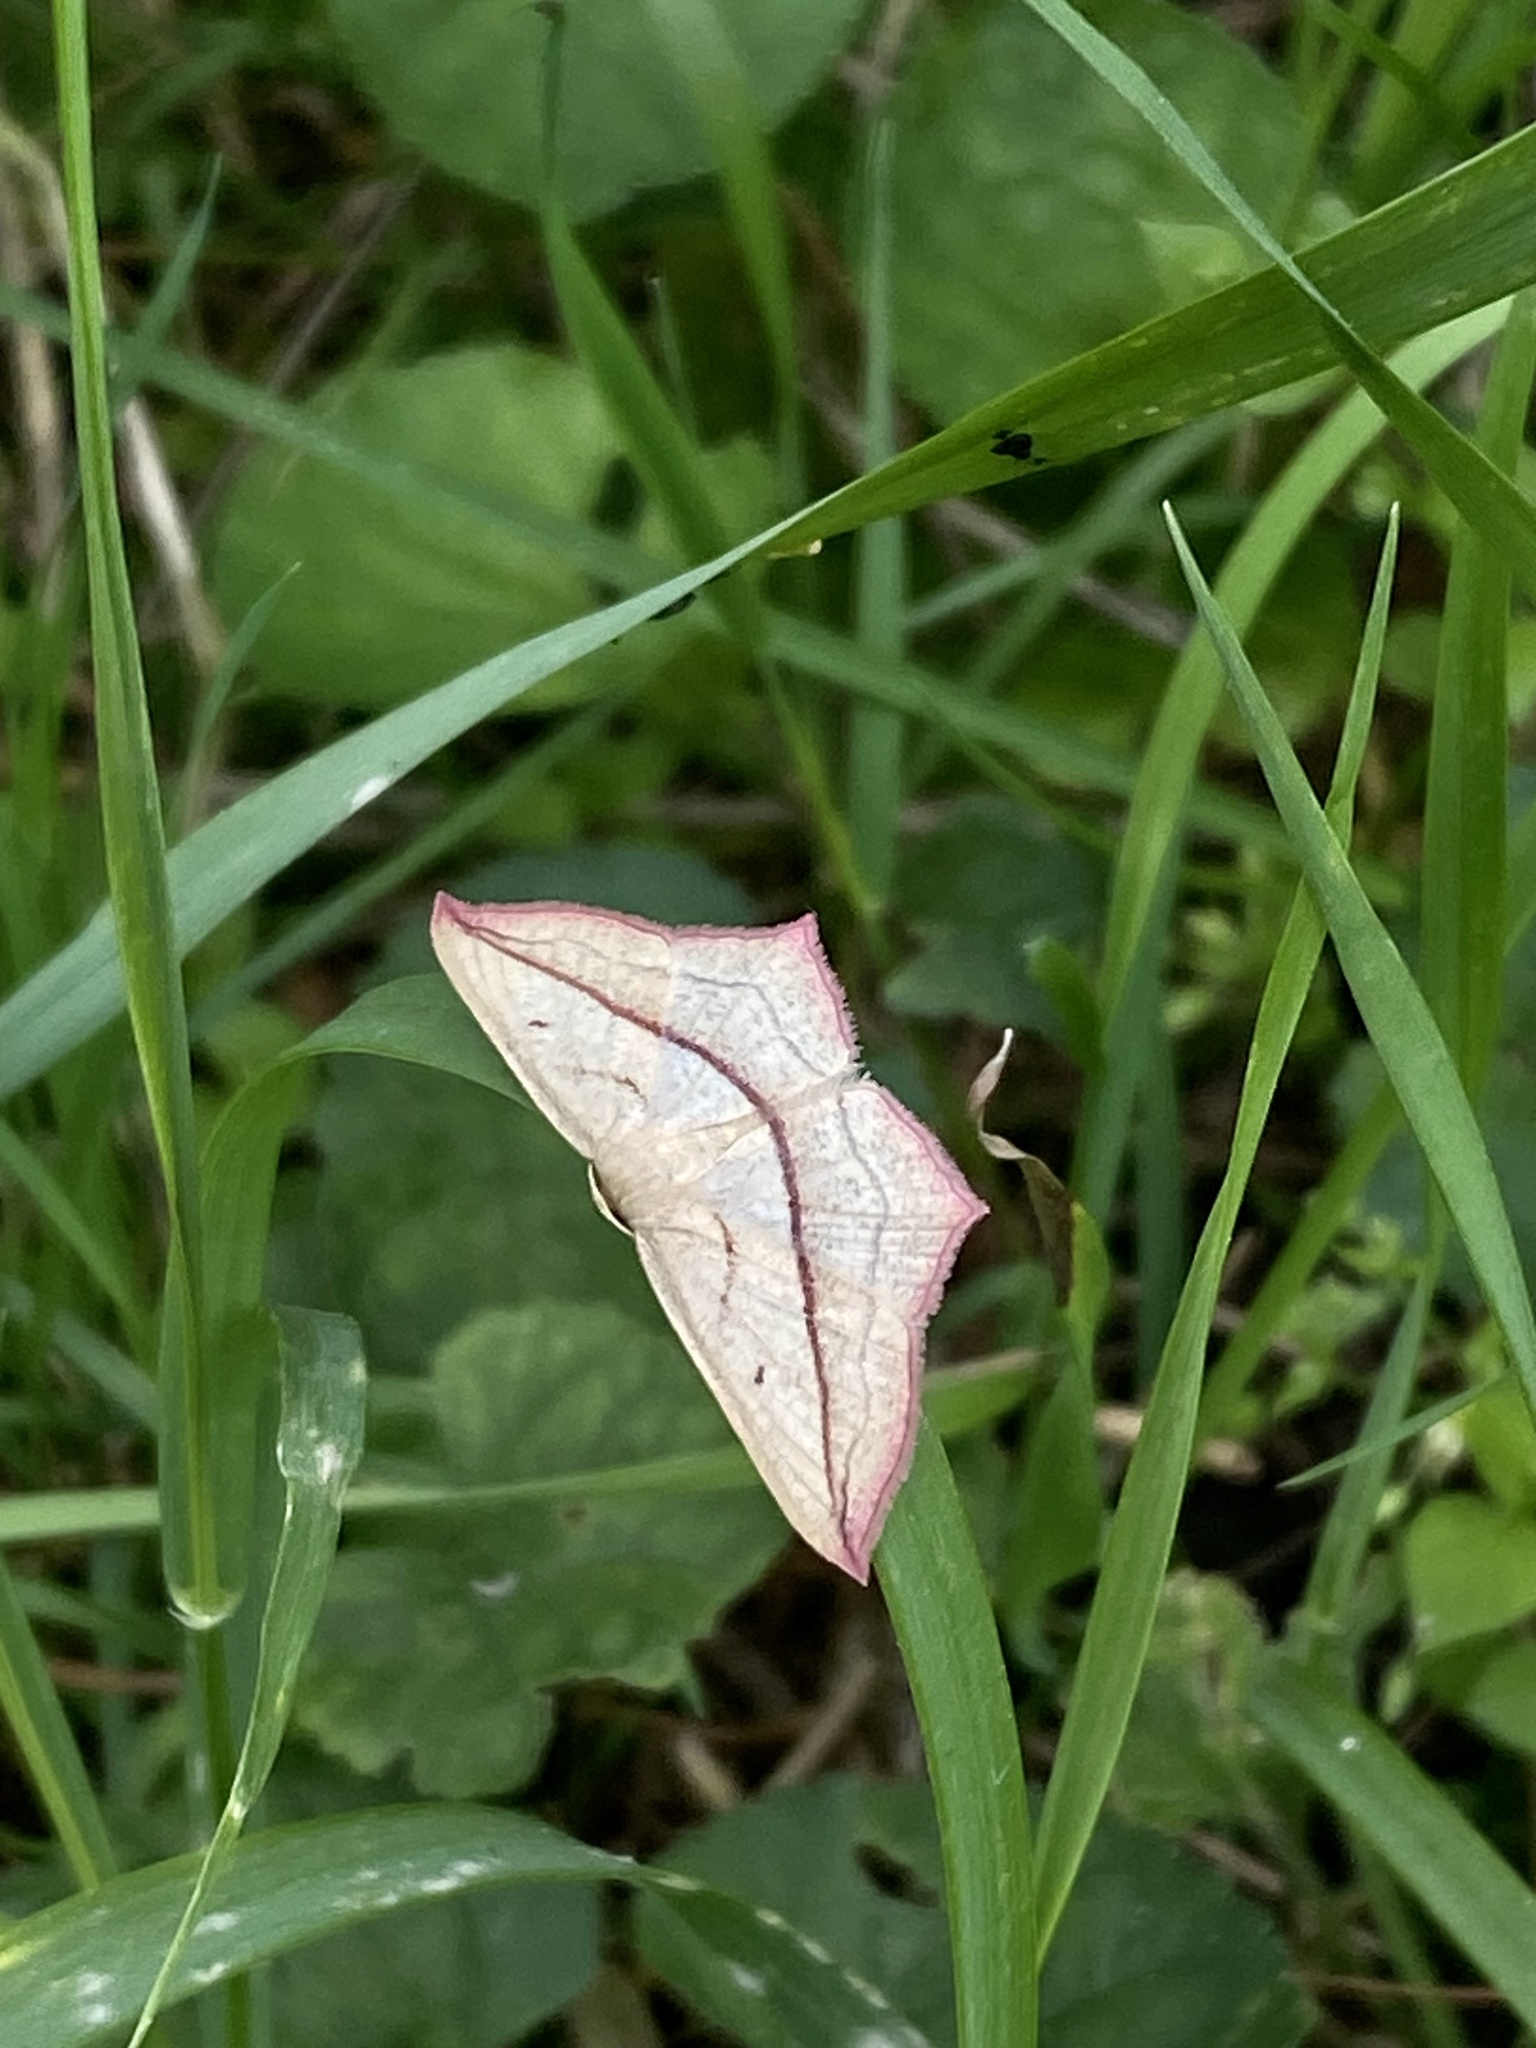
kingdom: Animalia
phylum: Arthropoda
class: Insecta
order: Lepidoptera
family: Geometridae
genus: Timandra
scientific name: Timandra comae
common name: Blood-vein
